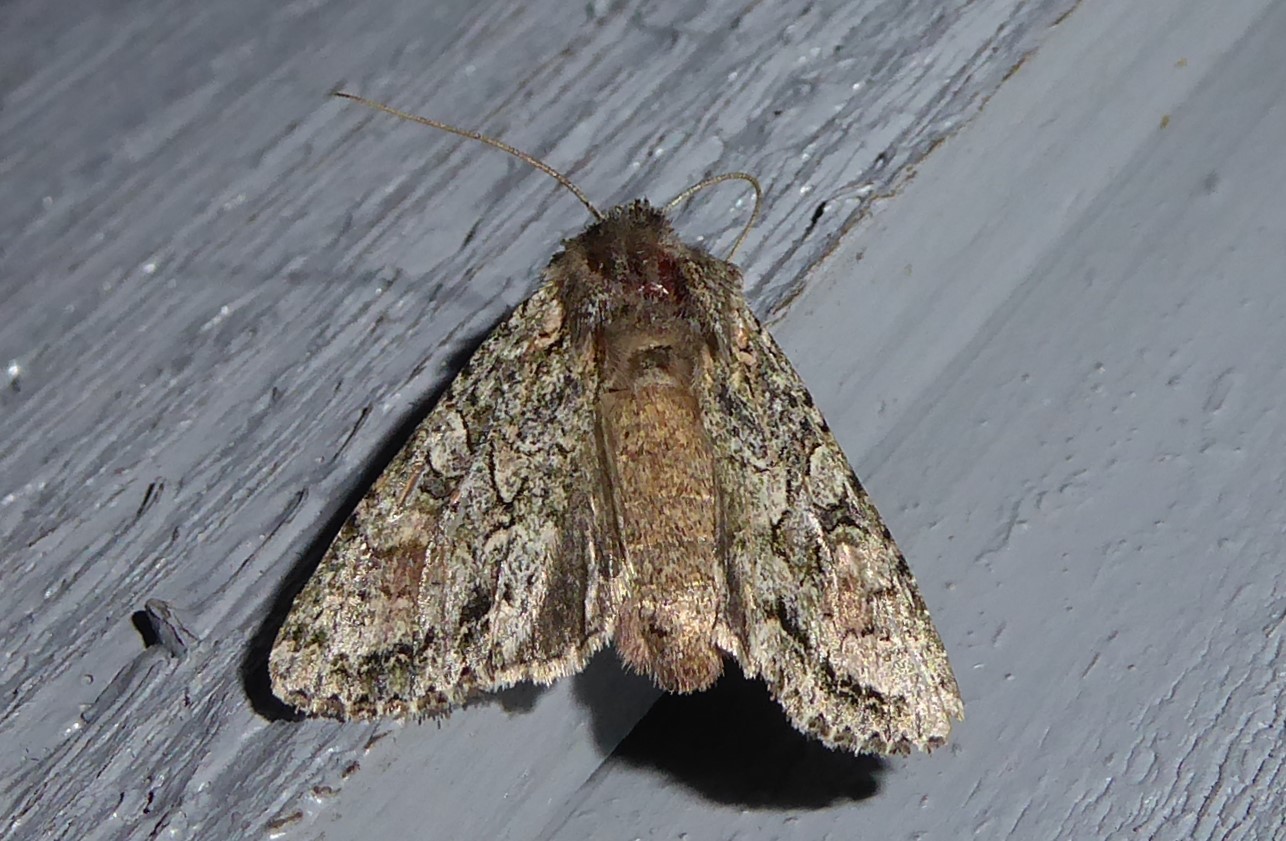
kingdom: Animalia
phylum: Arthropoda
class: Insecta
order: Lepidoptera
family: Noctuidae
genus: Ichneutica
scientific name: Ichneutica mutans
